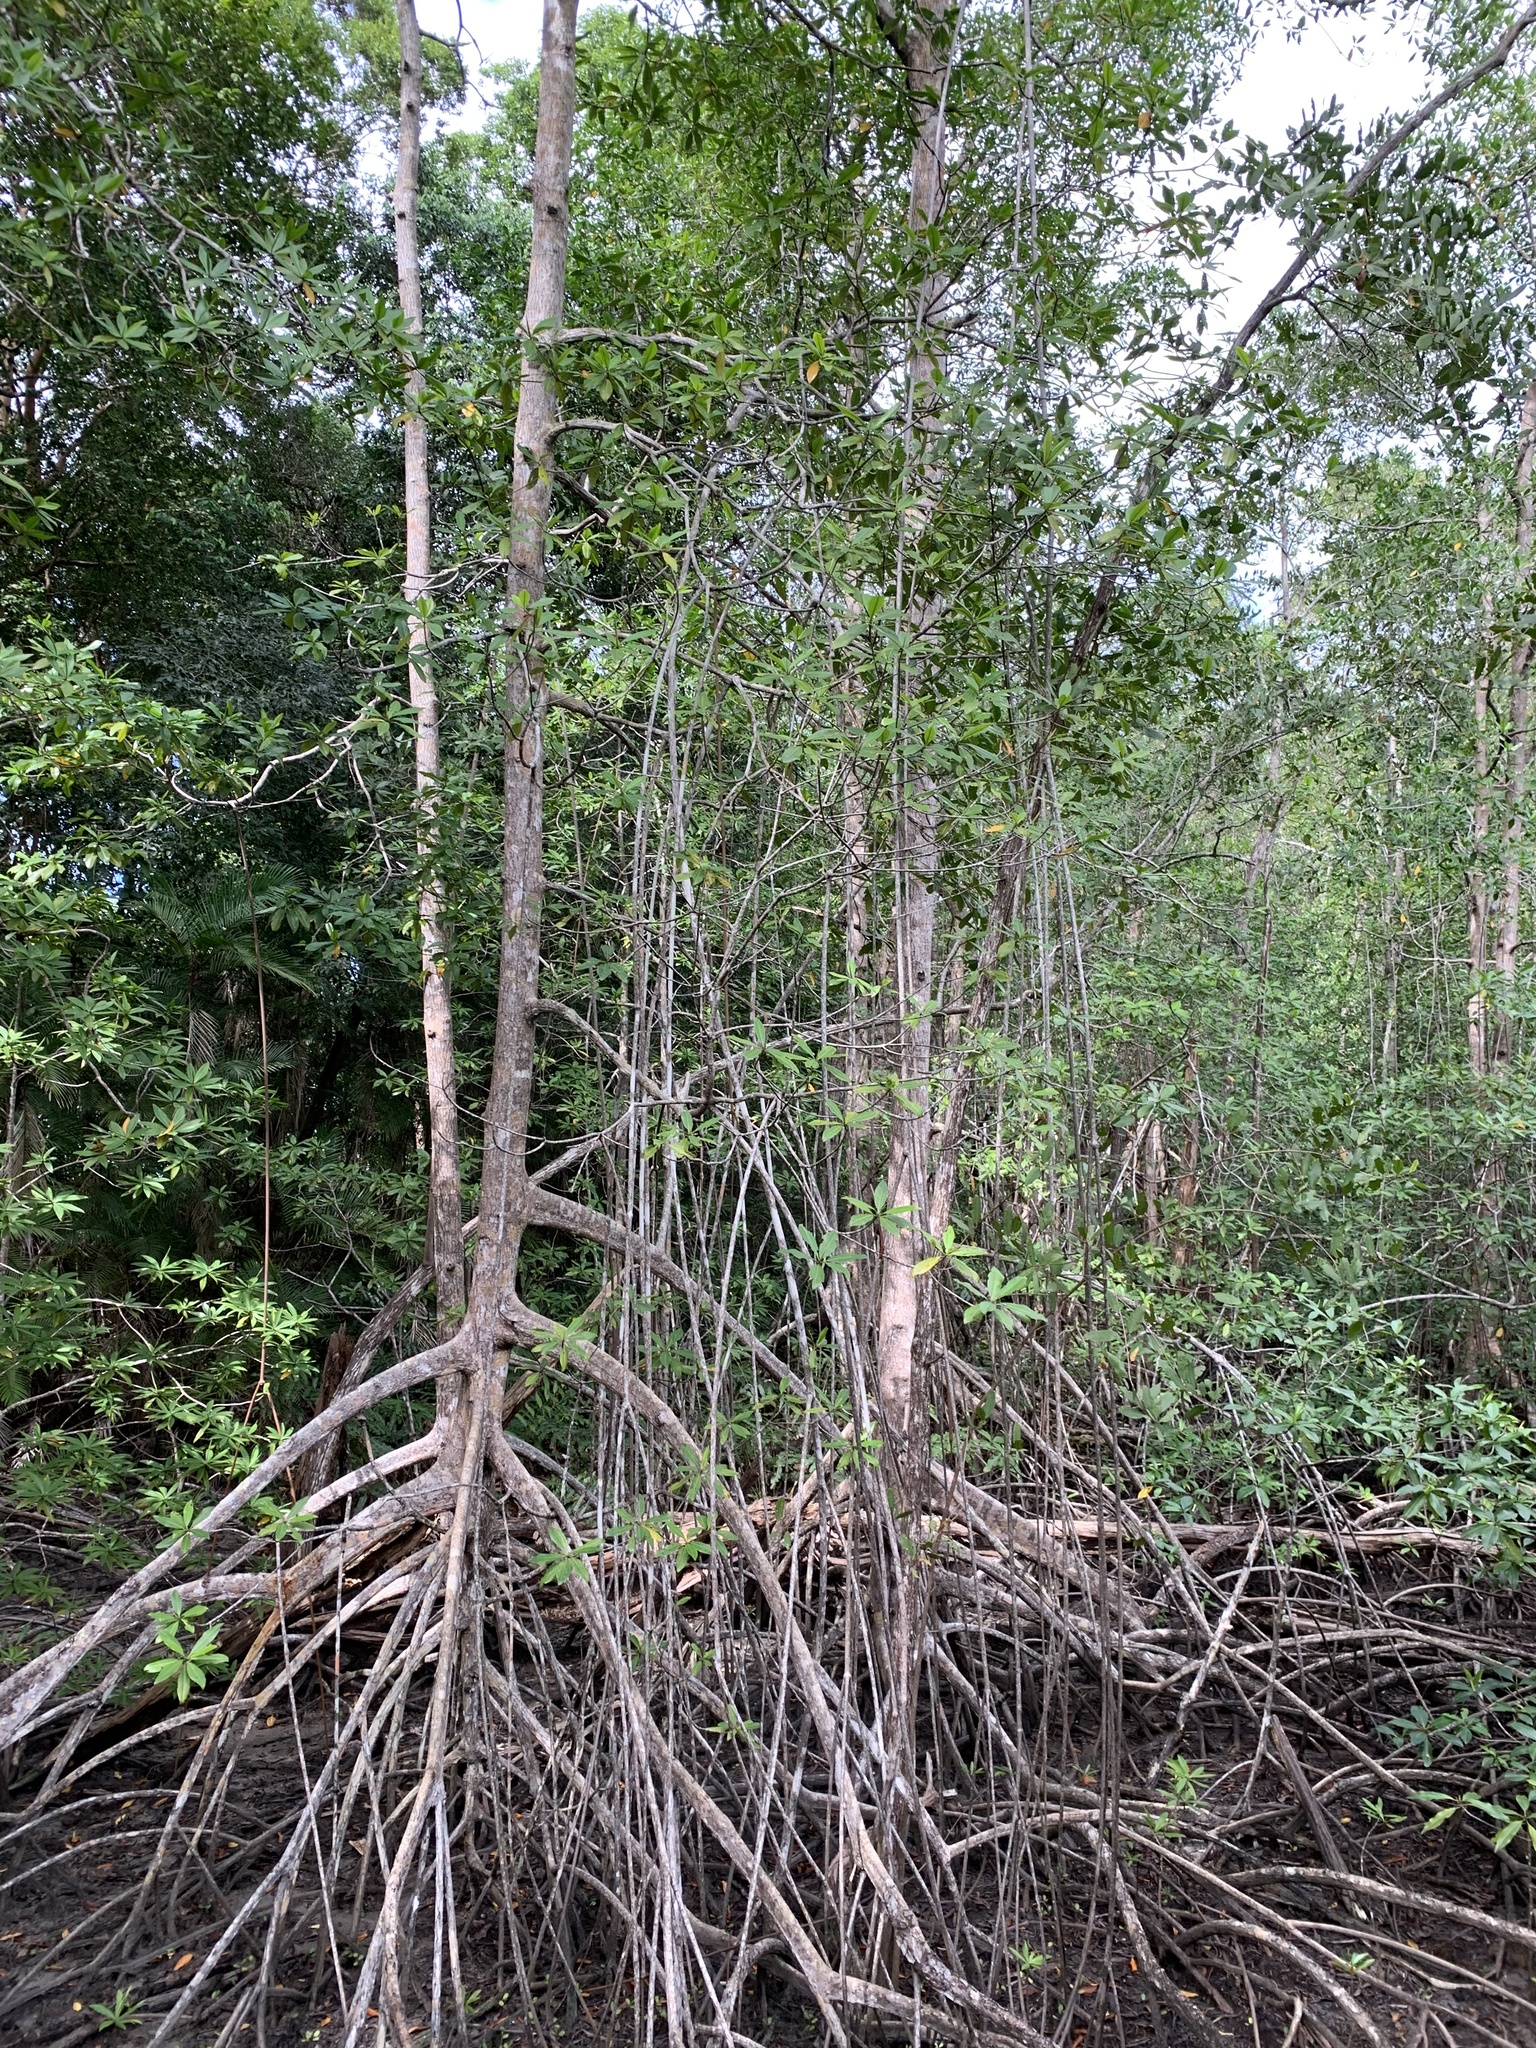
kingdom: Plantae
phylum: Tracheophyta
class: Magnoliopsida
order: Malpighiales
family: Rhizophoraceae
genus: Rhizophora
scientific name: Rhizophora racemosa
